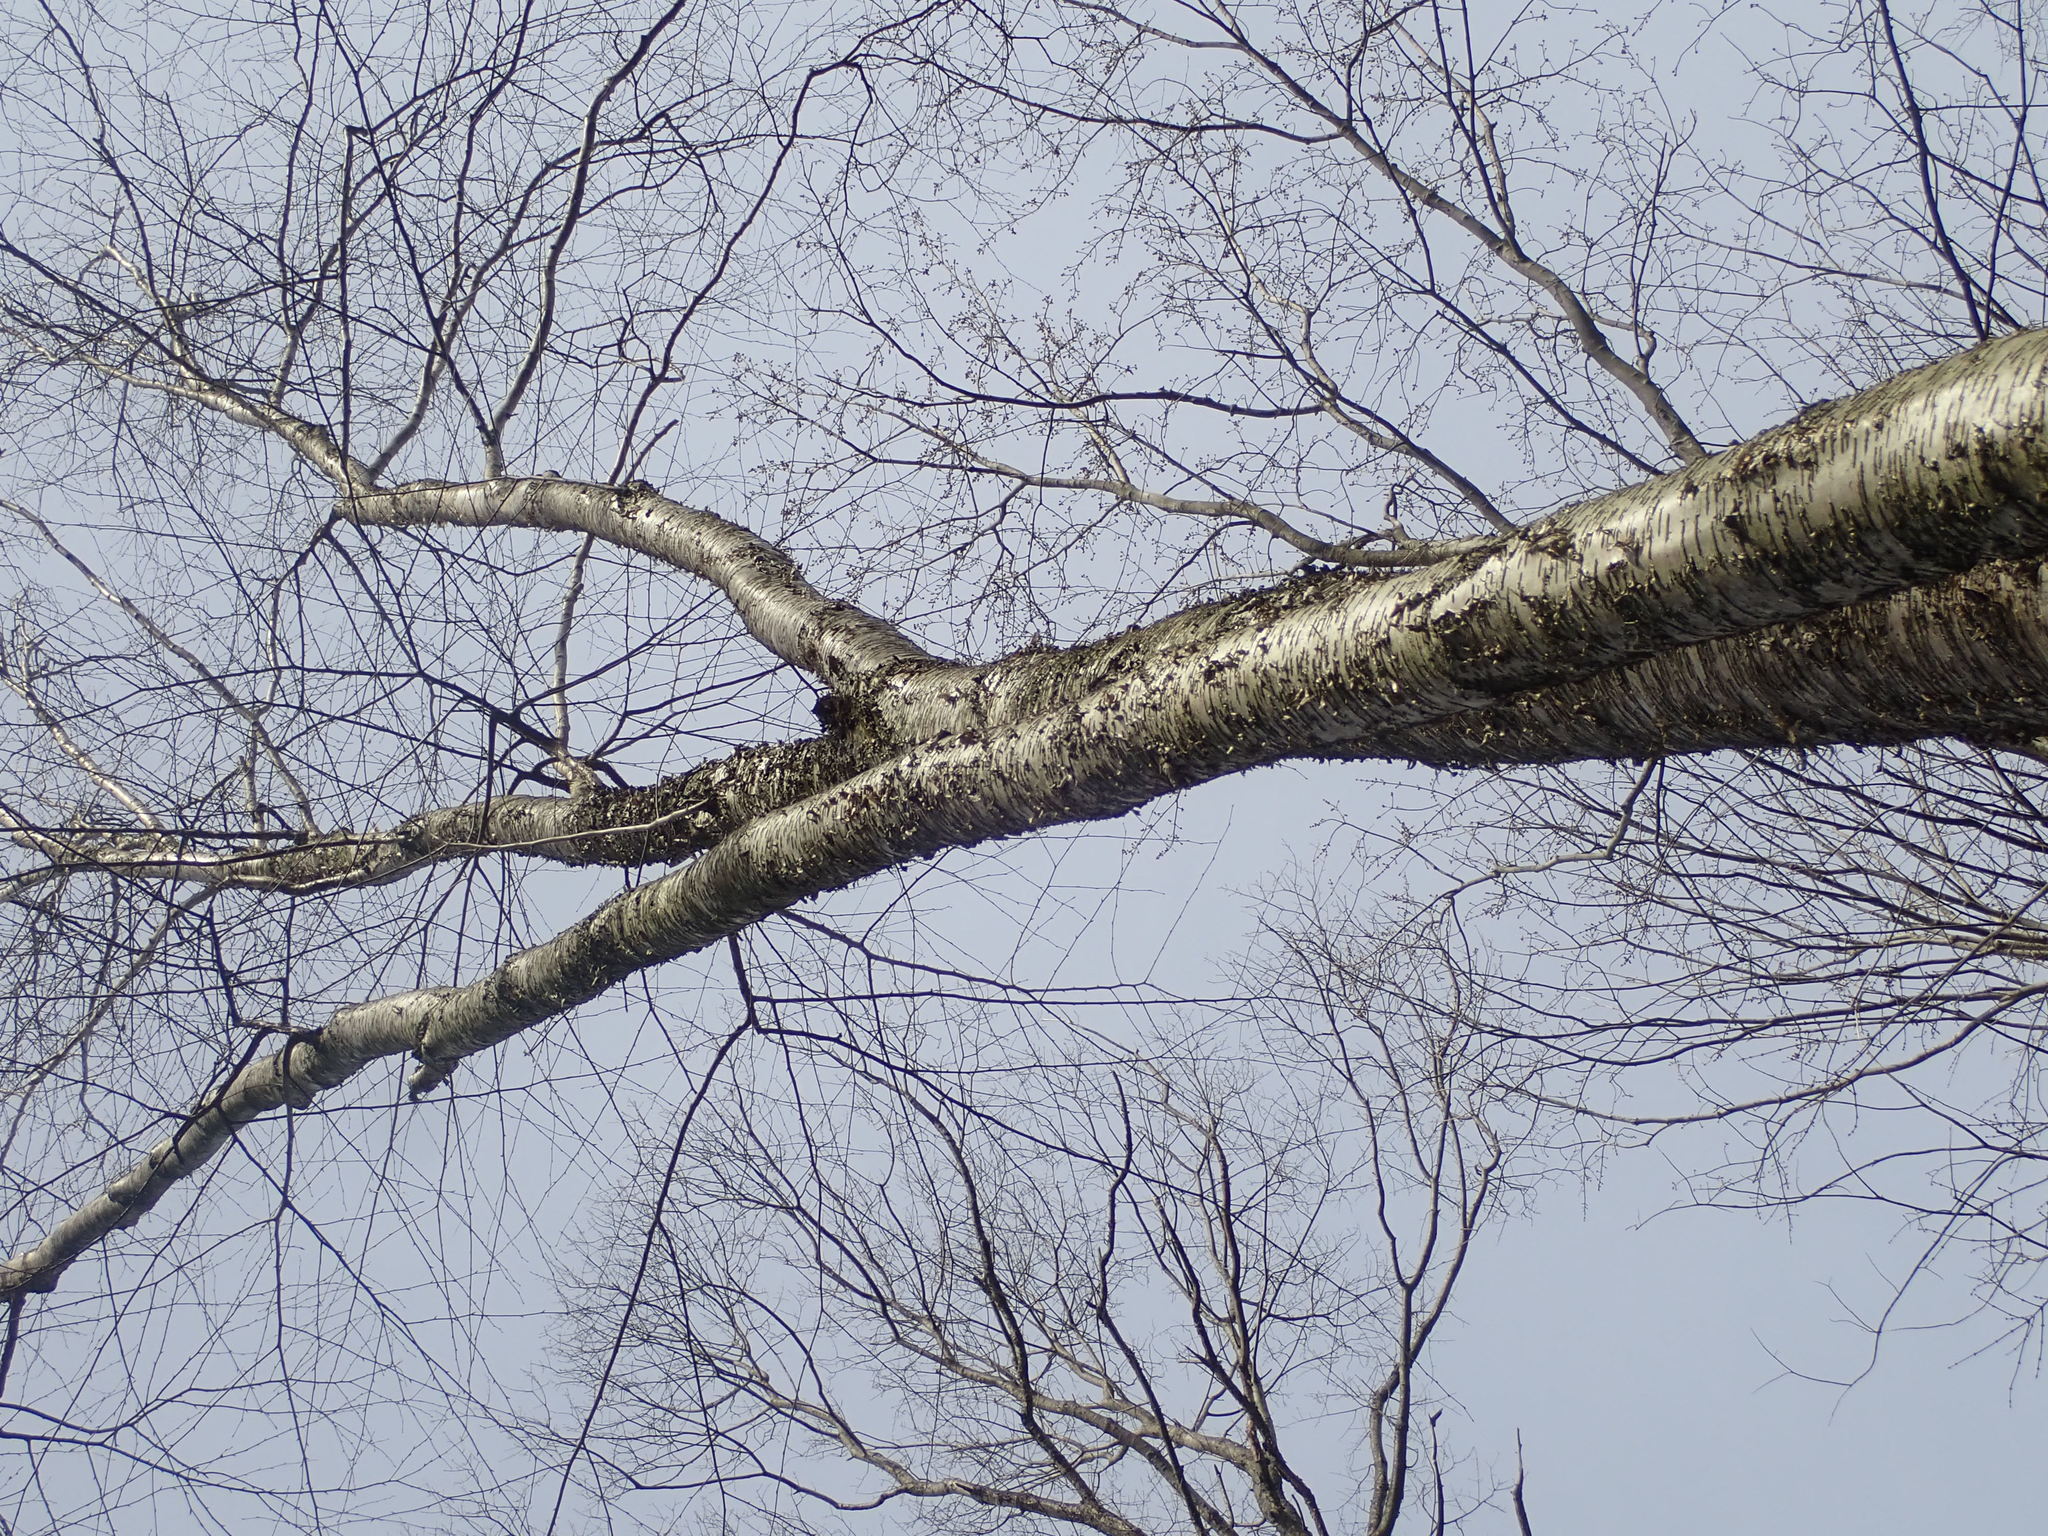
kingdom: Plantae
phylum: Tracheophyta
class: Magnoliopsida
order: Fagales
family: Betulaceae
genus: Betula
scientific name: Betula alleghaniensis
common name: Yellow birch
